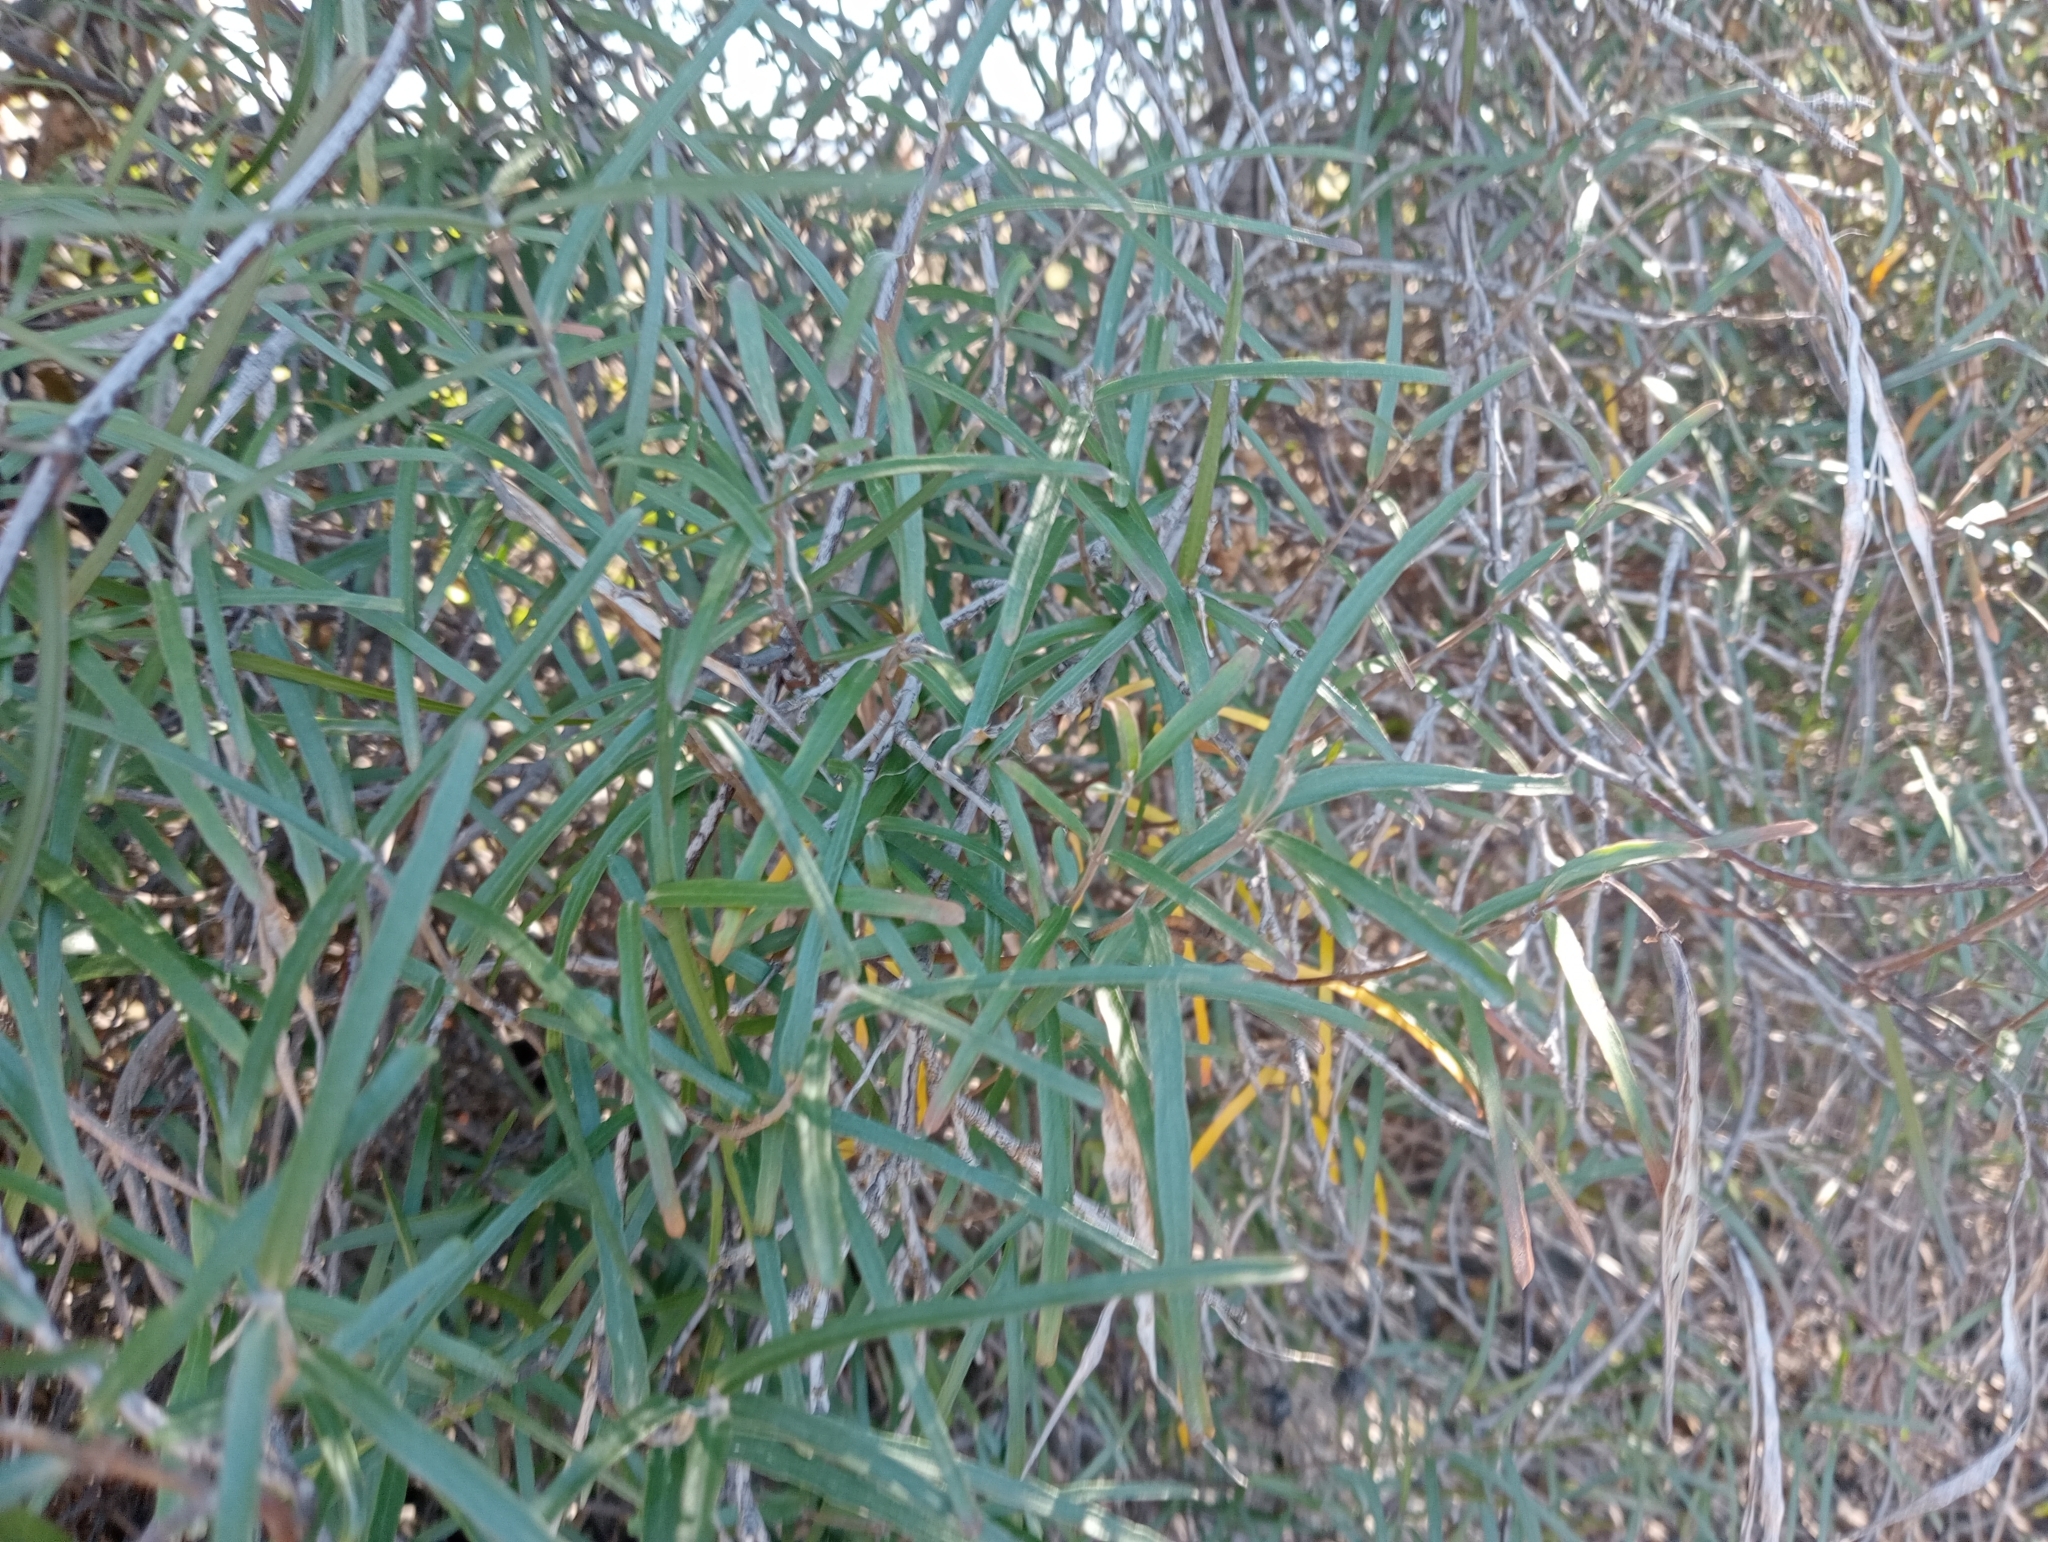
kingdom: Plantae
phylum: Tracheophyta
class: Magnoliopsida
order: Gentianales
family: Apocynaceae
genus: Parsonsia
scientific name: Parsonsia capsularis
